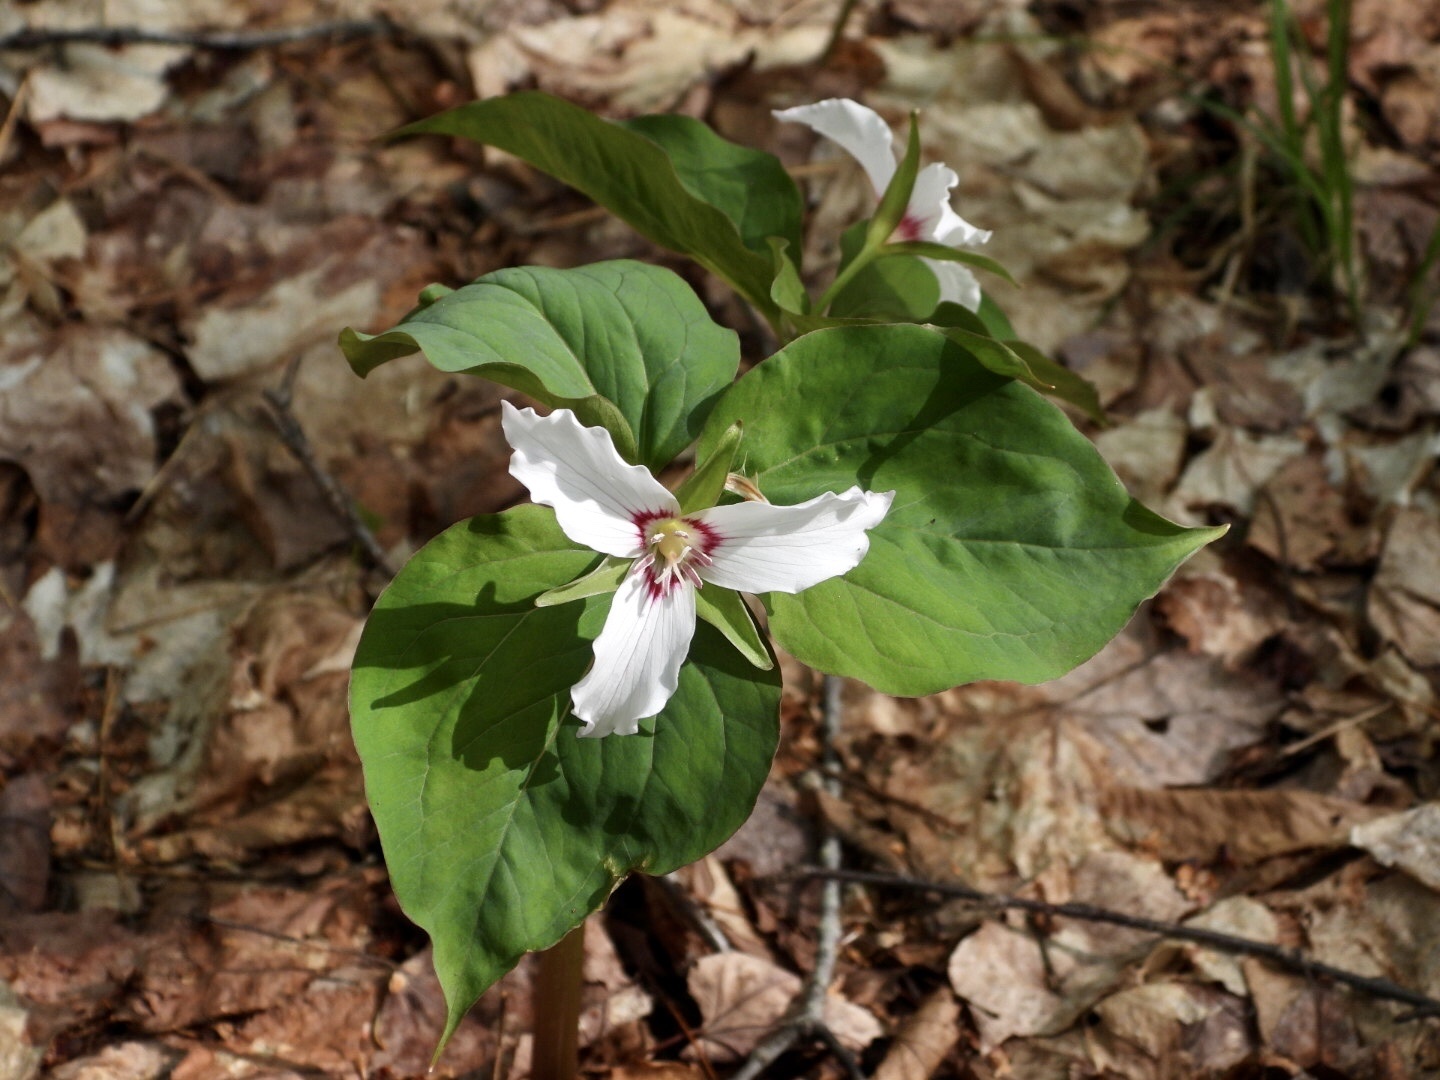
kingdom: Plantae
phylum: Tracheophyta
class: Liliopsida
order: Liliales
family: Melanthiaceae
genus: Trillium
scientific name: Trillium undulatum
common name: Paint trillium
